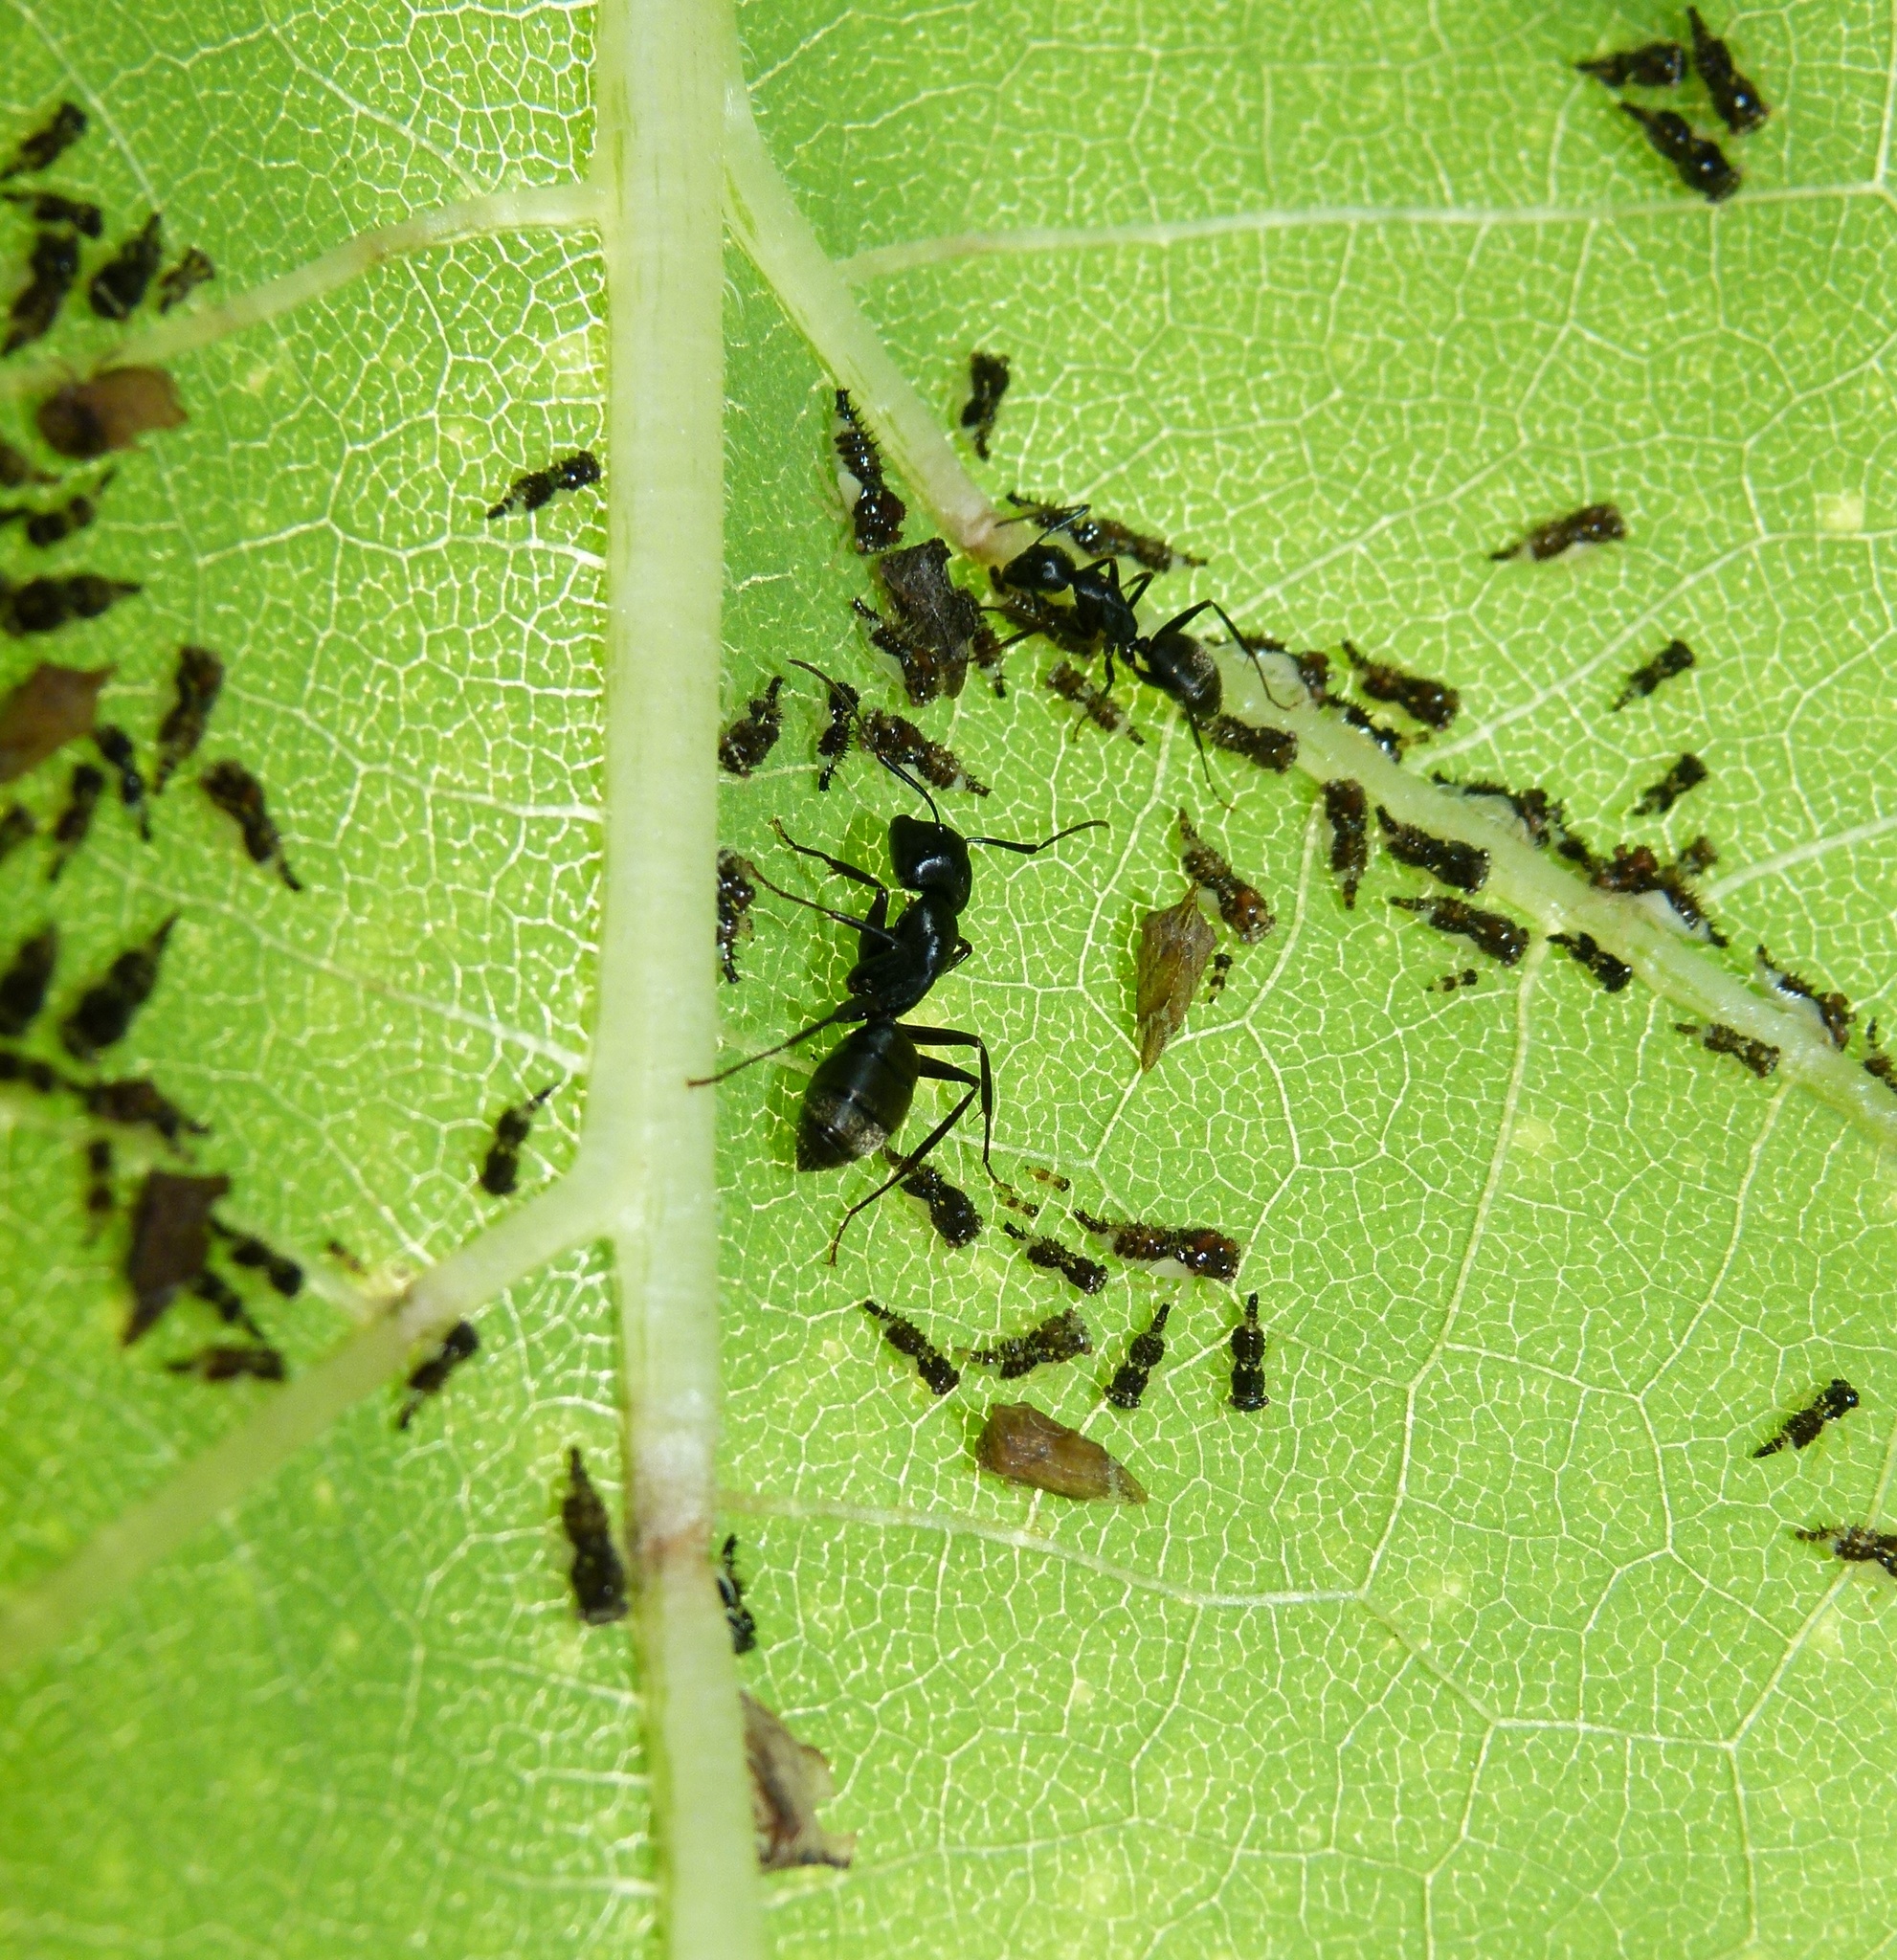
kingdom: Animalia
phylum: Arthropoda
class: Insecta
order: Hymenoptera
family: Formicidae
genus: Camponotus
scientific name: Camponotus pennsylvanicus
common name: Black carpenter ant
